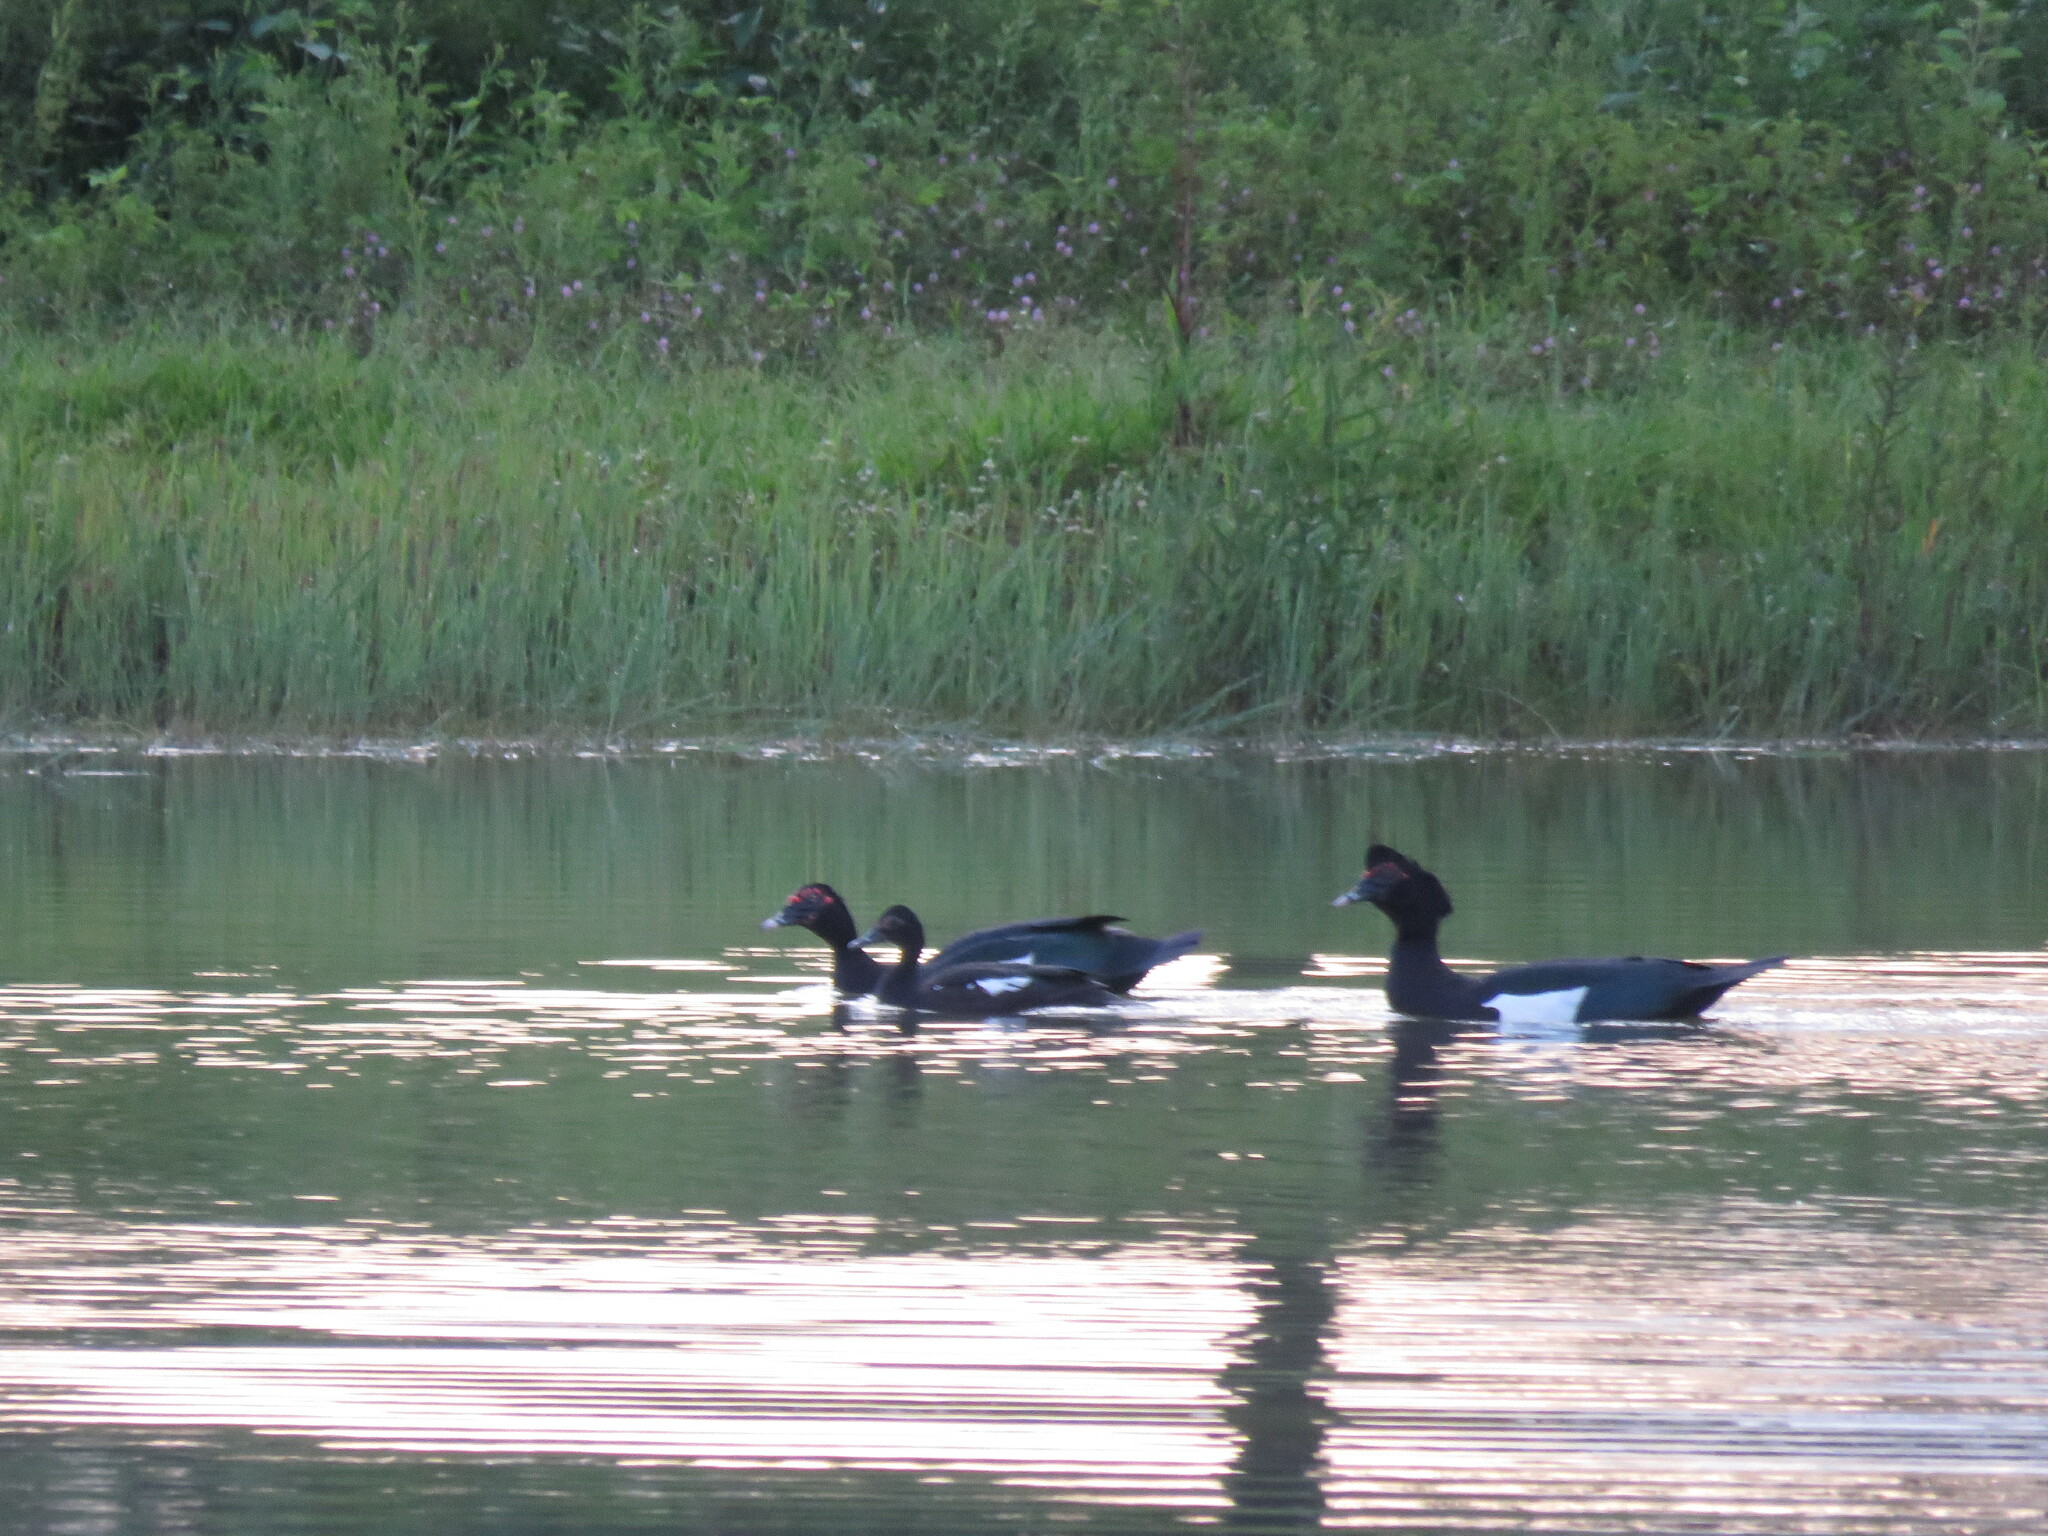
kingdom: Animalia
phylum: Chordata
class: Aves
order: Anseriformes
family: Anatidae
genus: Cairina
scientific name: Cairina moschata
